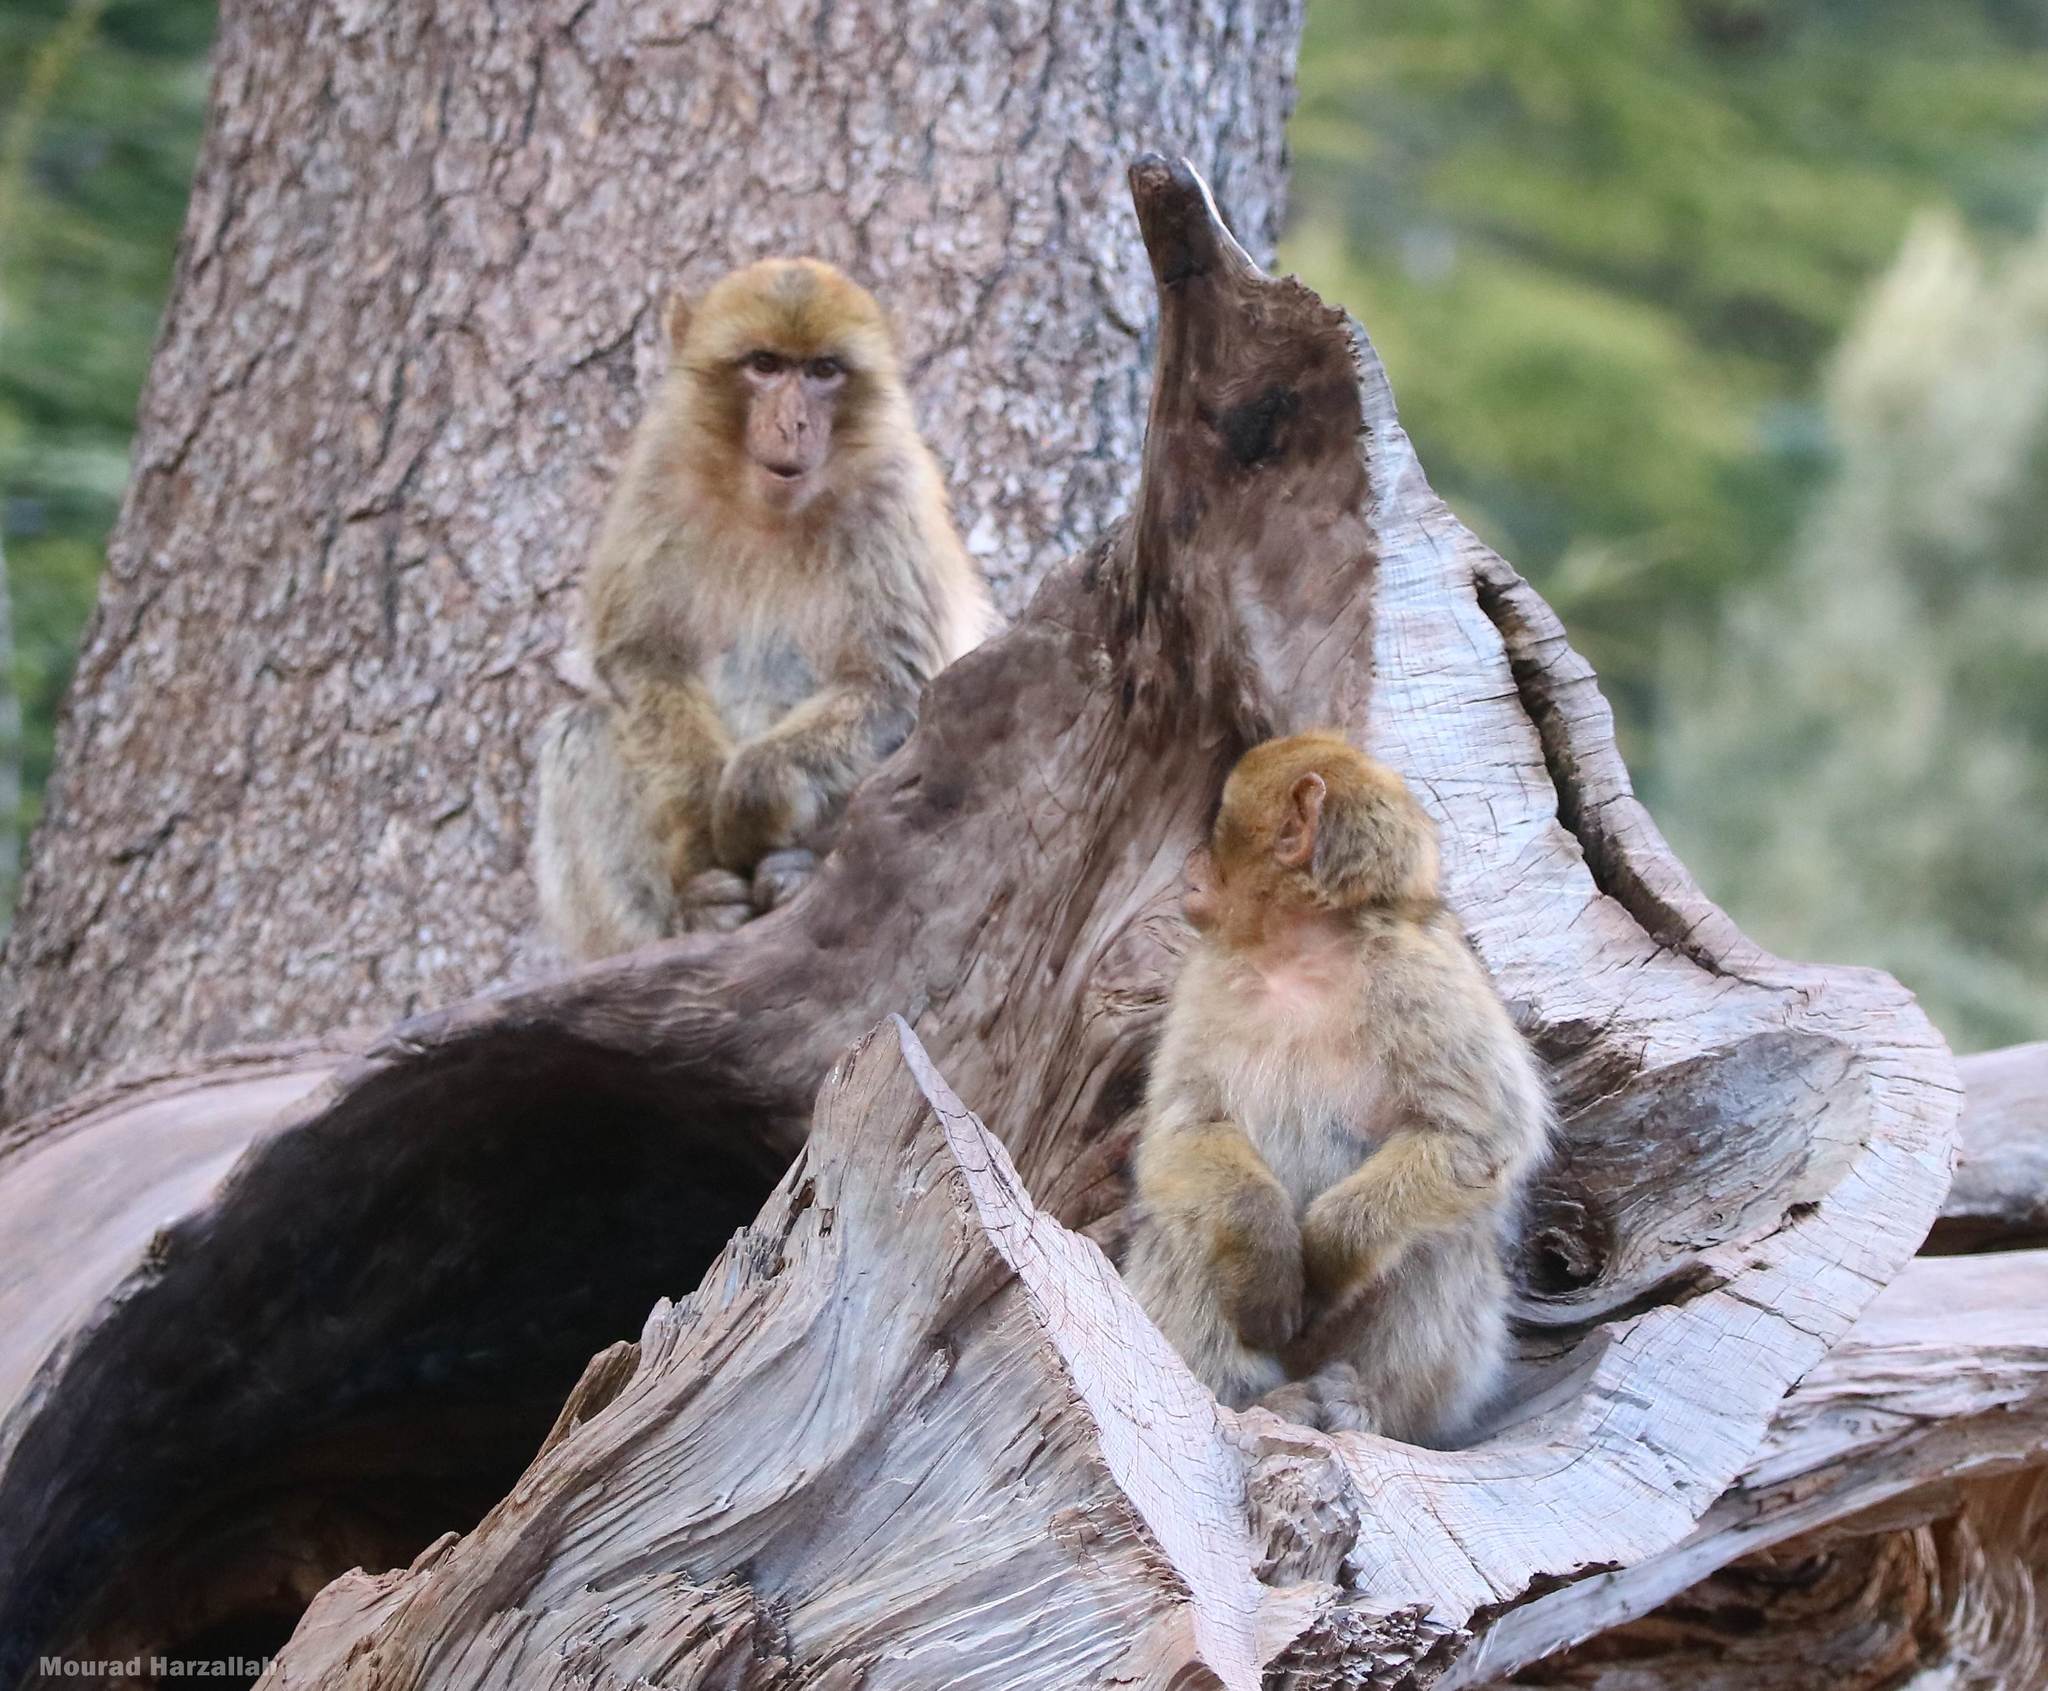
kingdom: Animalia
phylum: Chordata
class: Mammalia
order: Primates
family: Cercopithecidae
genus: Macaca
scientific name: Macaca sylvanus
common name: Barbary macaque
